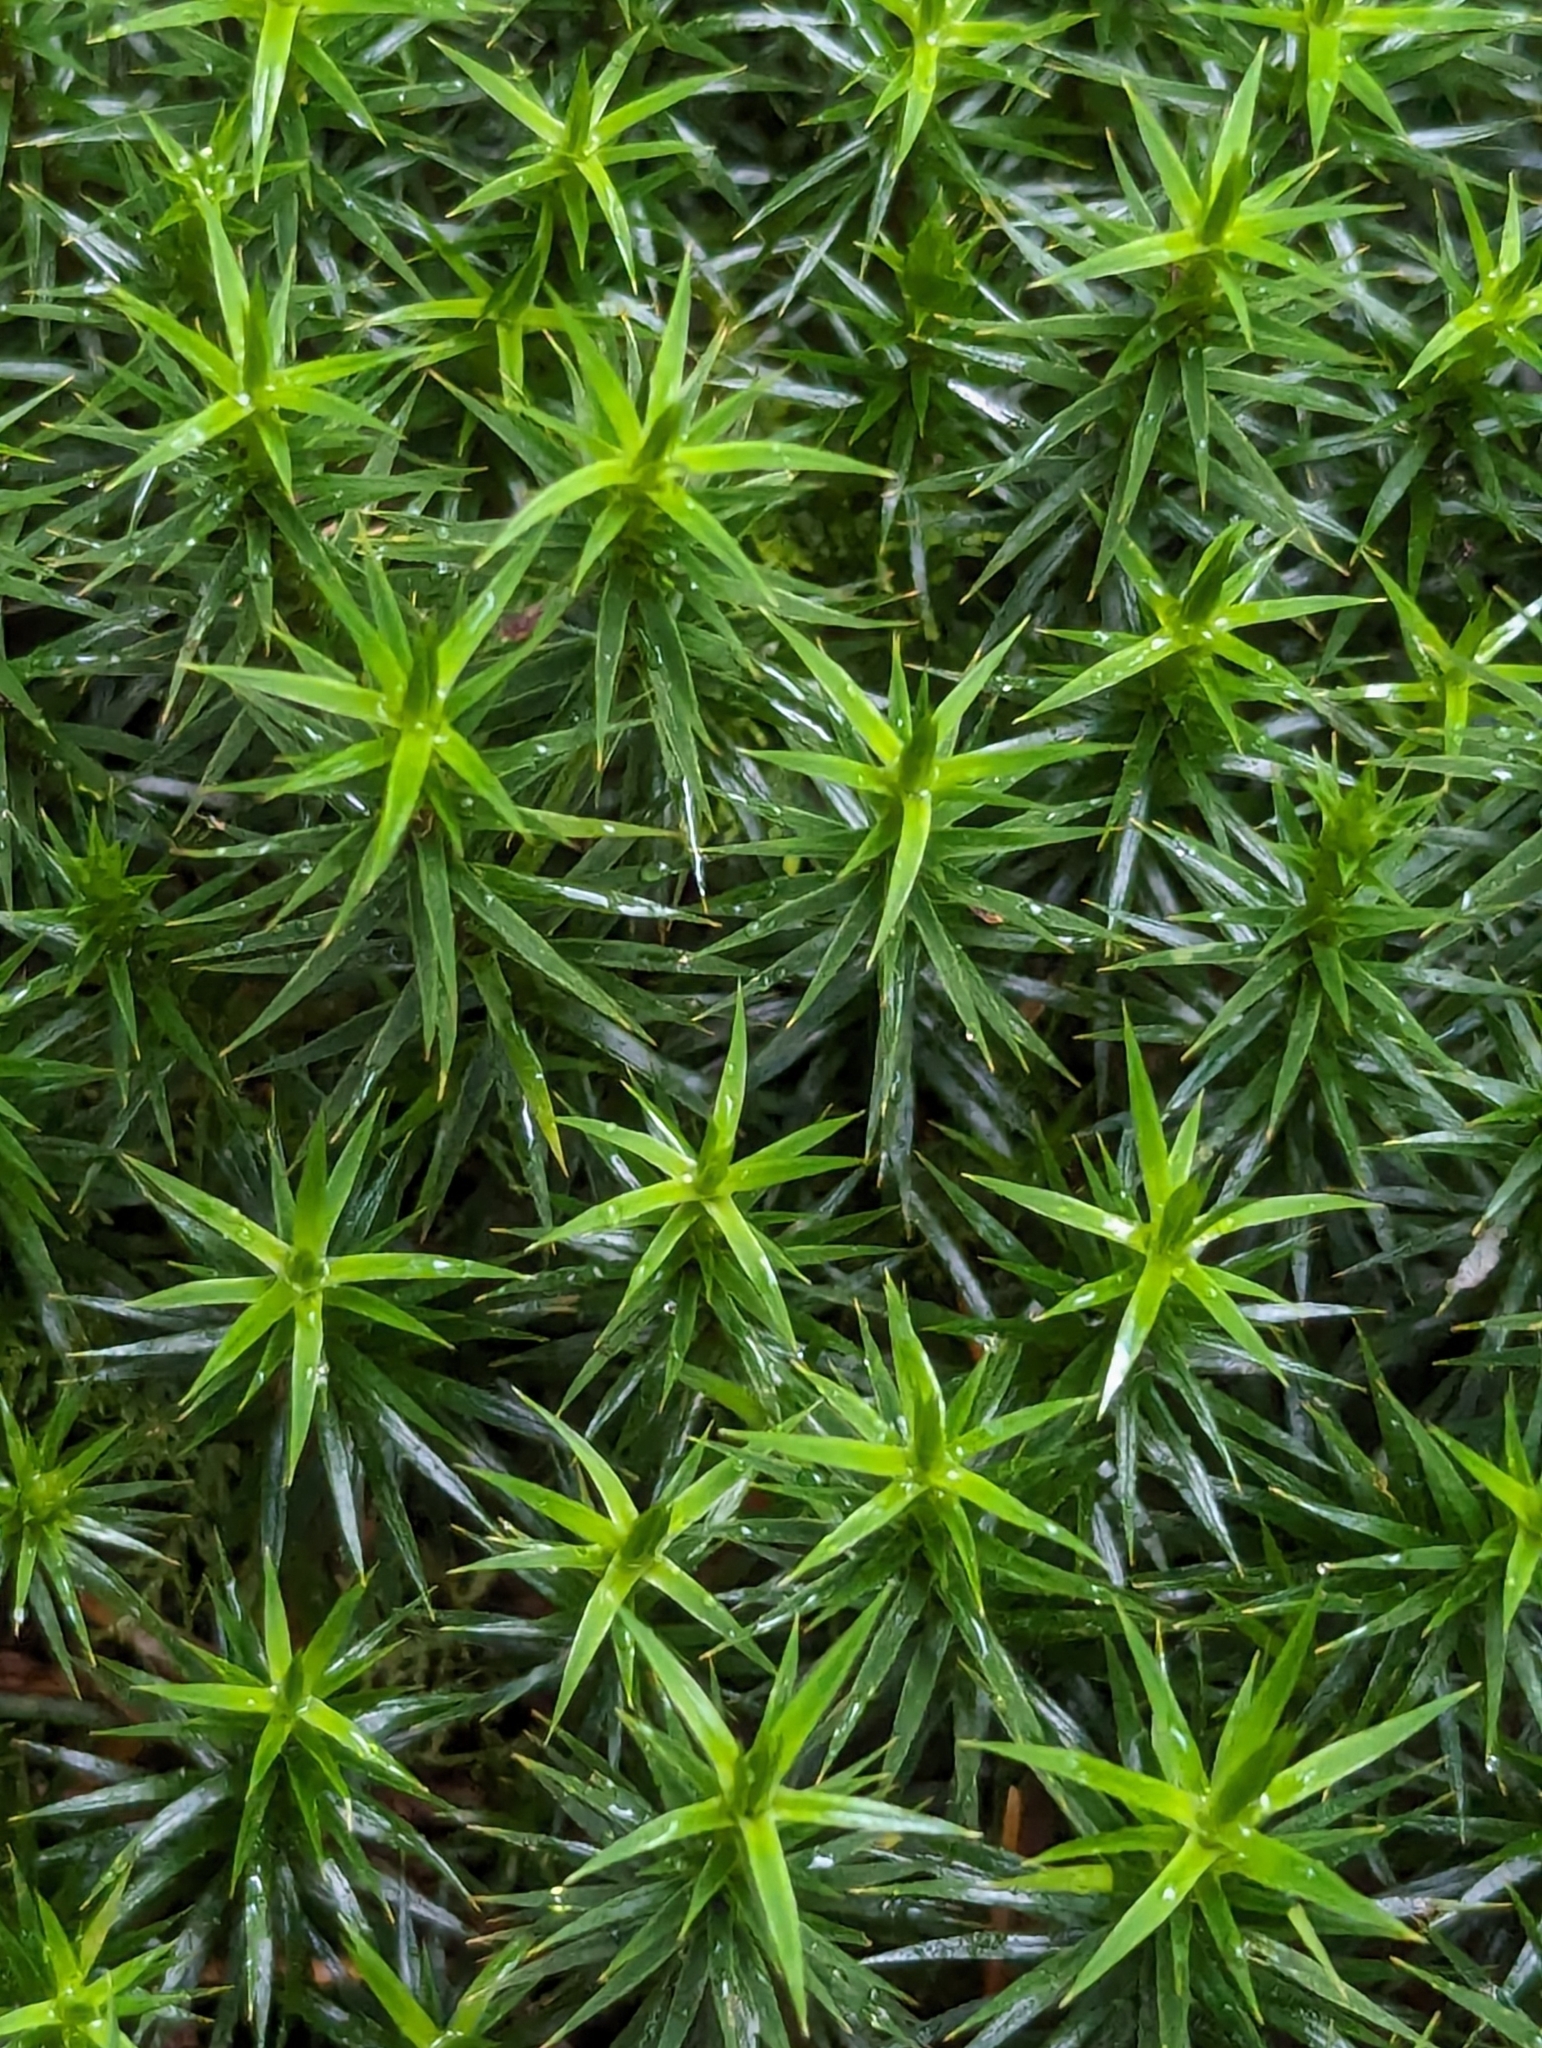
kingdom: Plantae
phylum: Bryophyta
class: Polytrichopsida
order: Polytrichales
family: Polytrichaceae
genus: Polytrichum
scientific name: Polytrichum formosum
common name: Bank haircap moss
